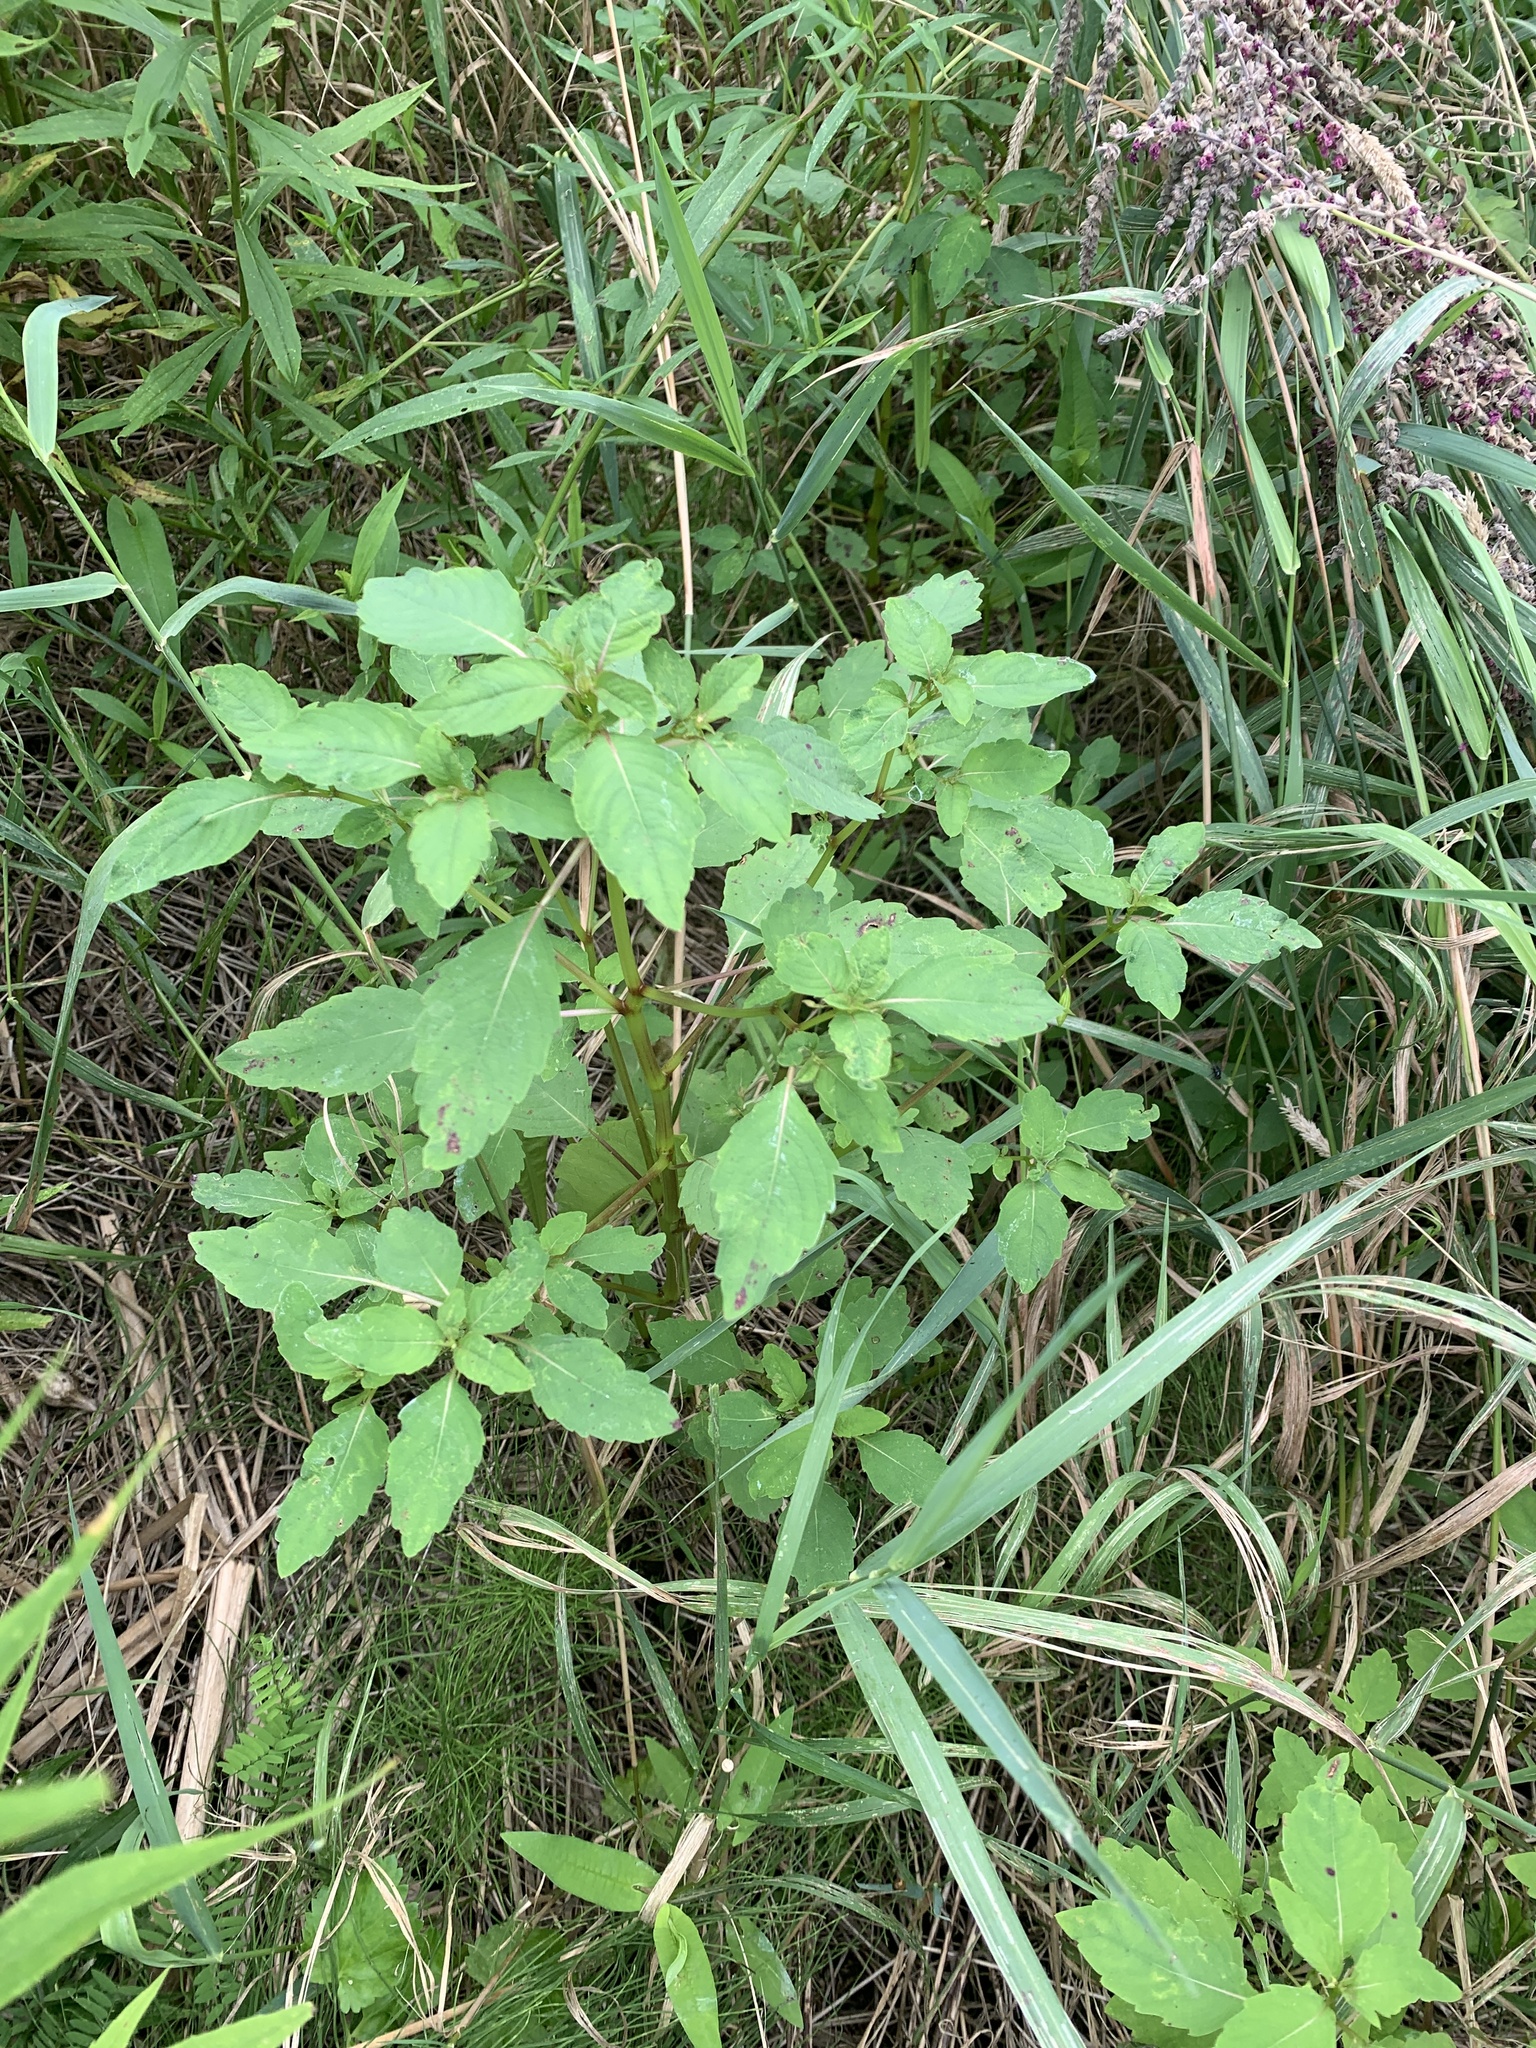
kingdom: Plantae
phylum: Tracheophyta
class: Magnoliopsida
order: Ericales
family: Balsaminaceae
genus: Impatiens
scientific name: Impatiens capensis
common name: Orange balsam
